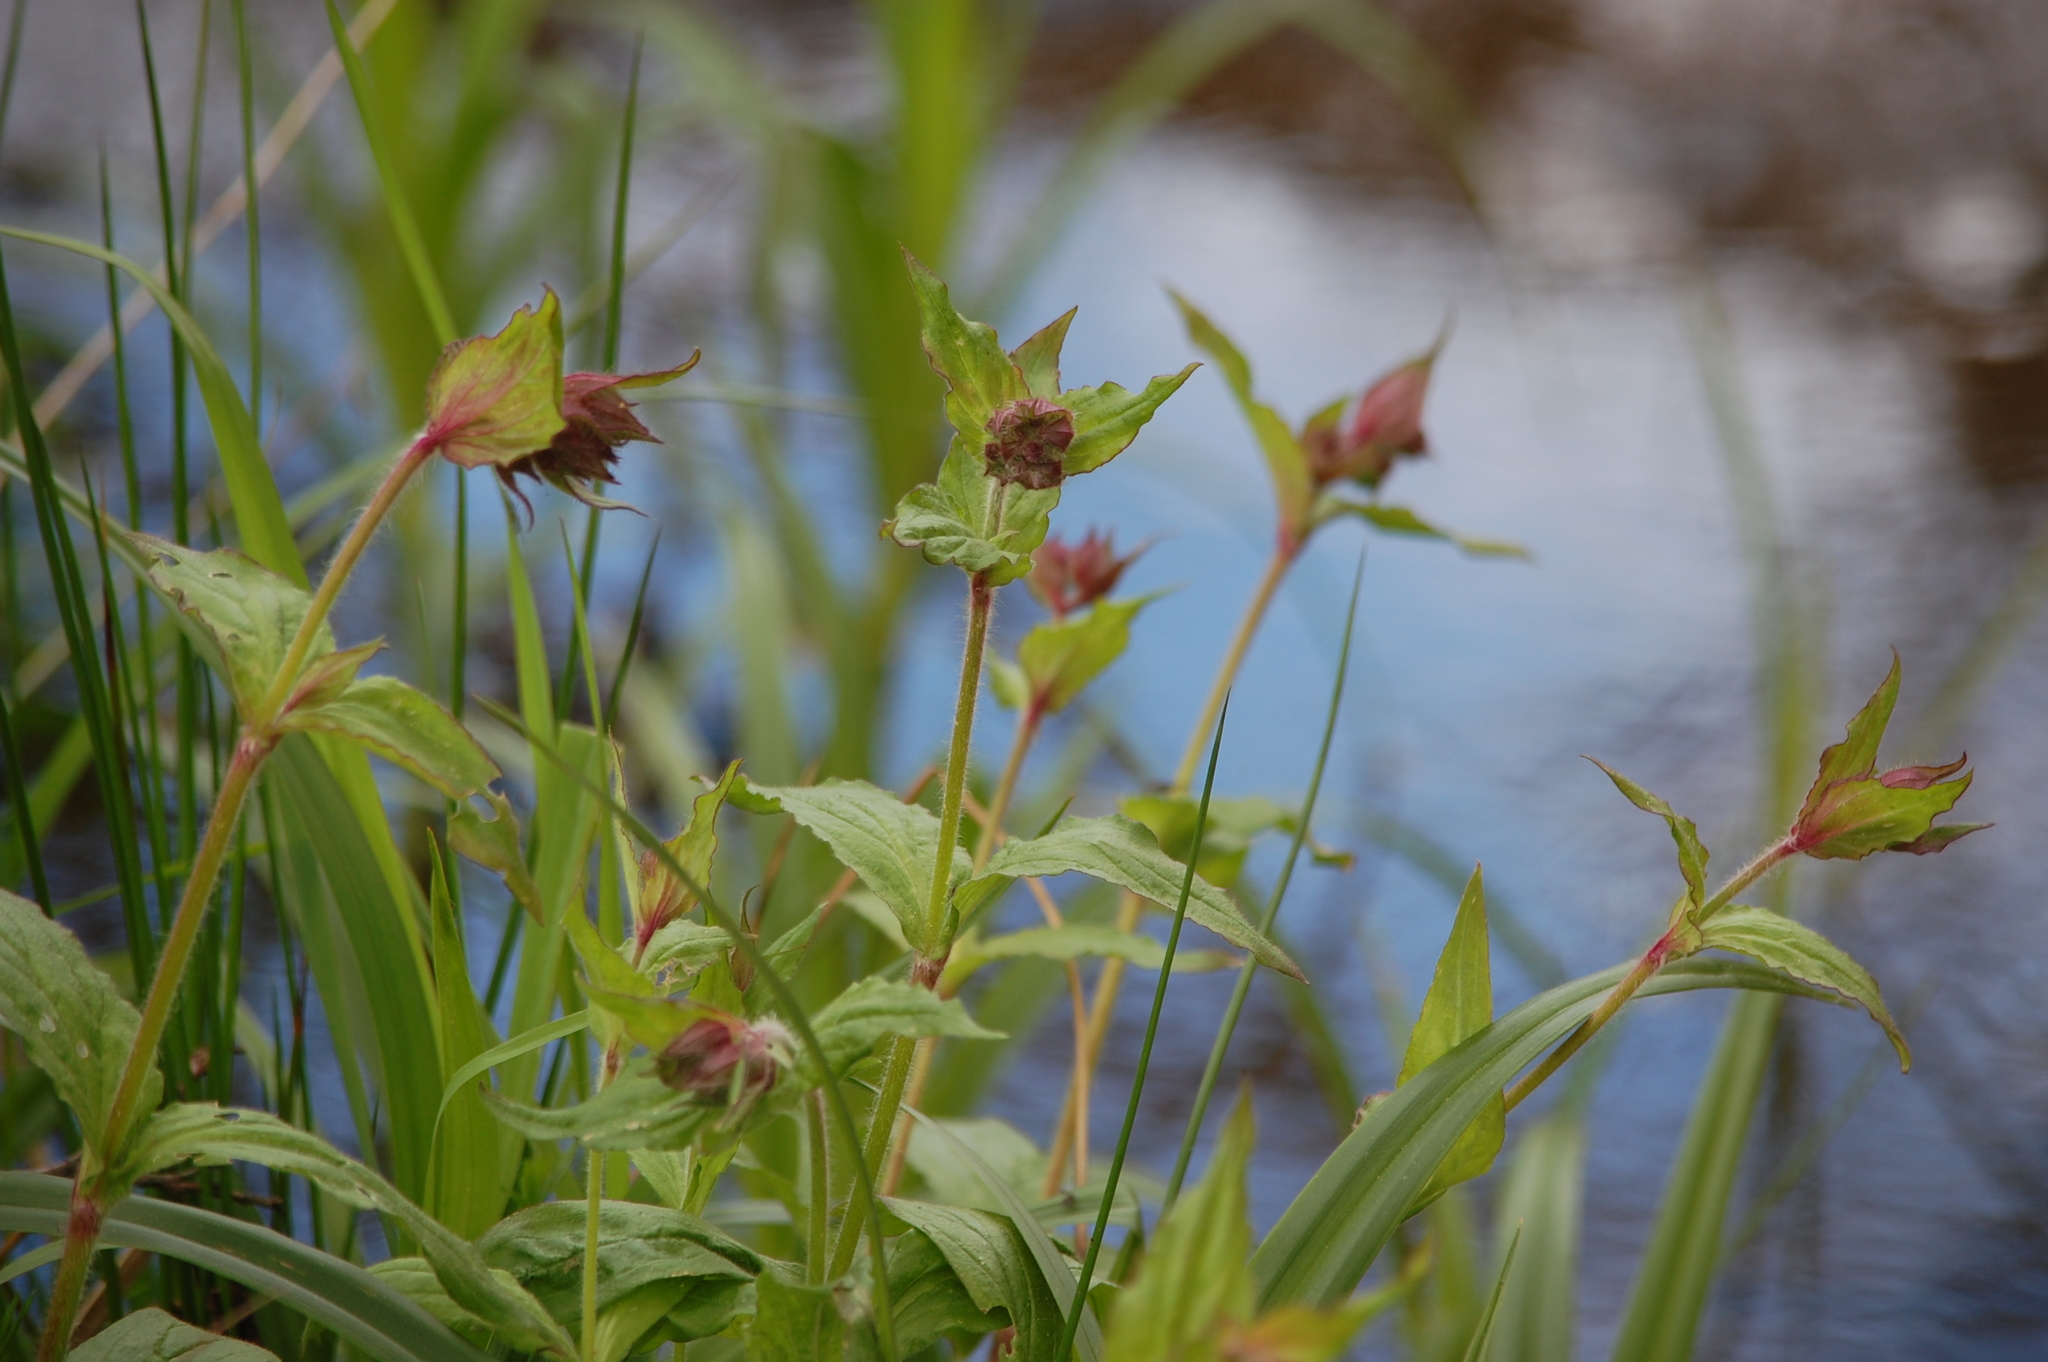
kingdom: Plantae
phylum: Tracheophyta
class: Magnoliopsida
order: Caryophyllales
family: Caryophyllaceae
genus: Silene
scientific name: Silene dioica
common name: Red campion
